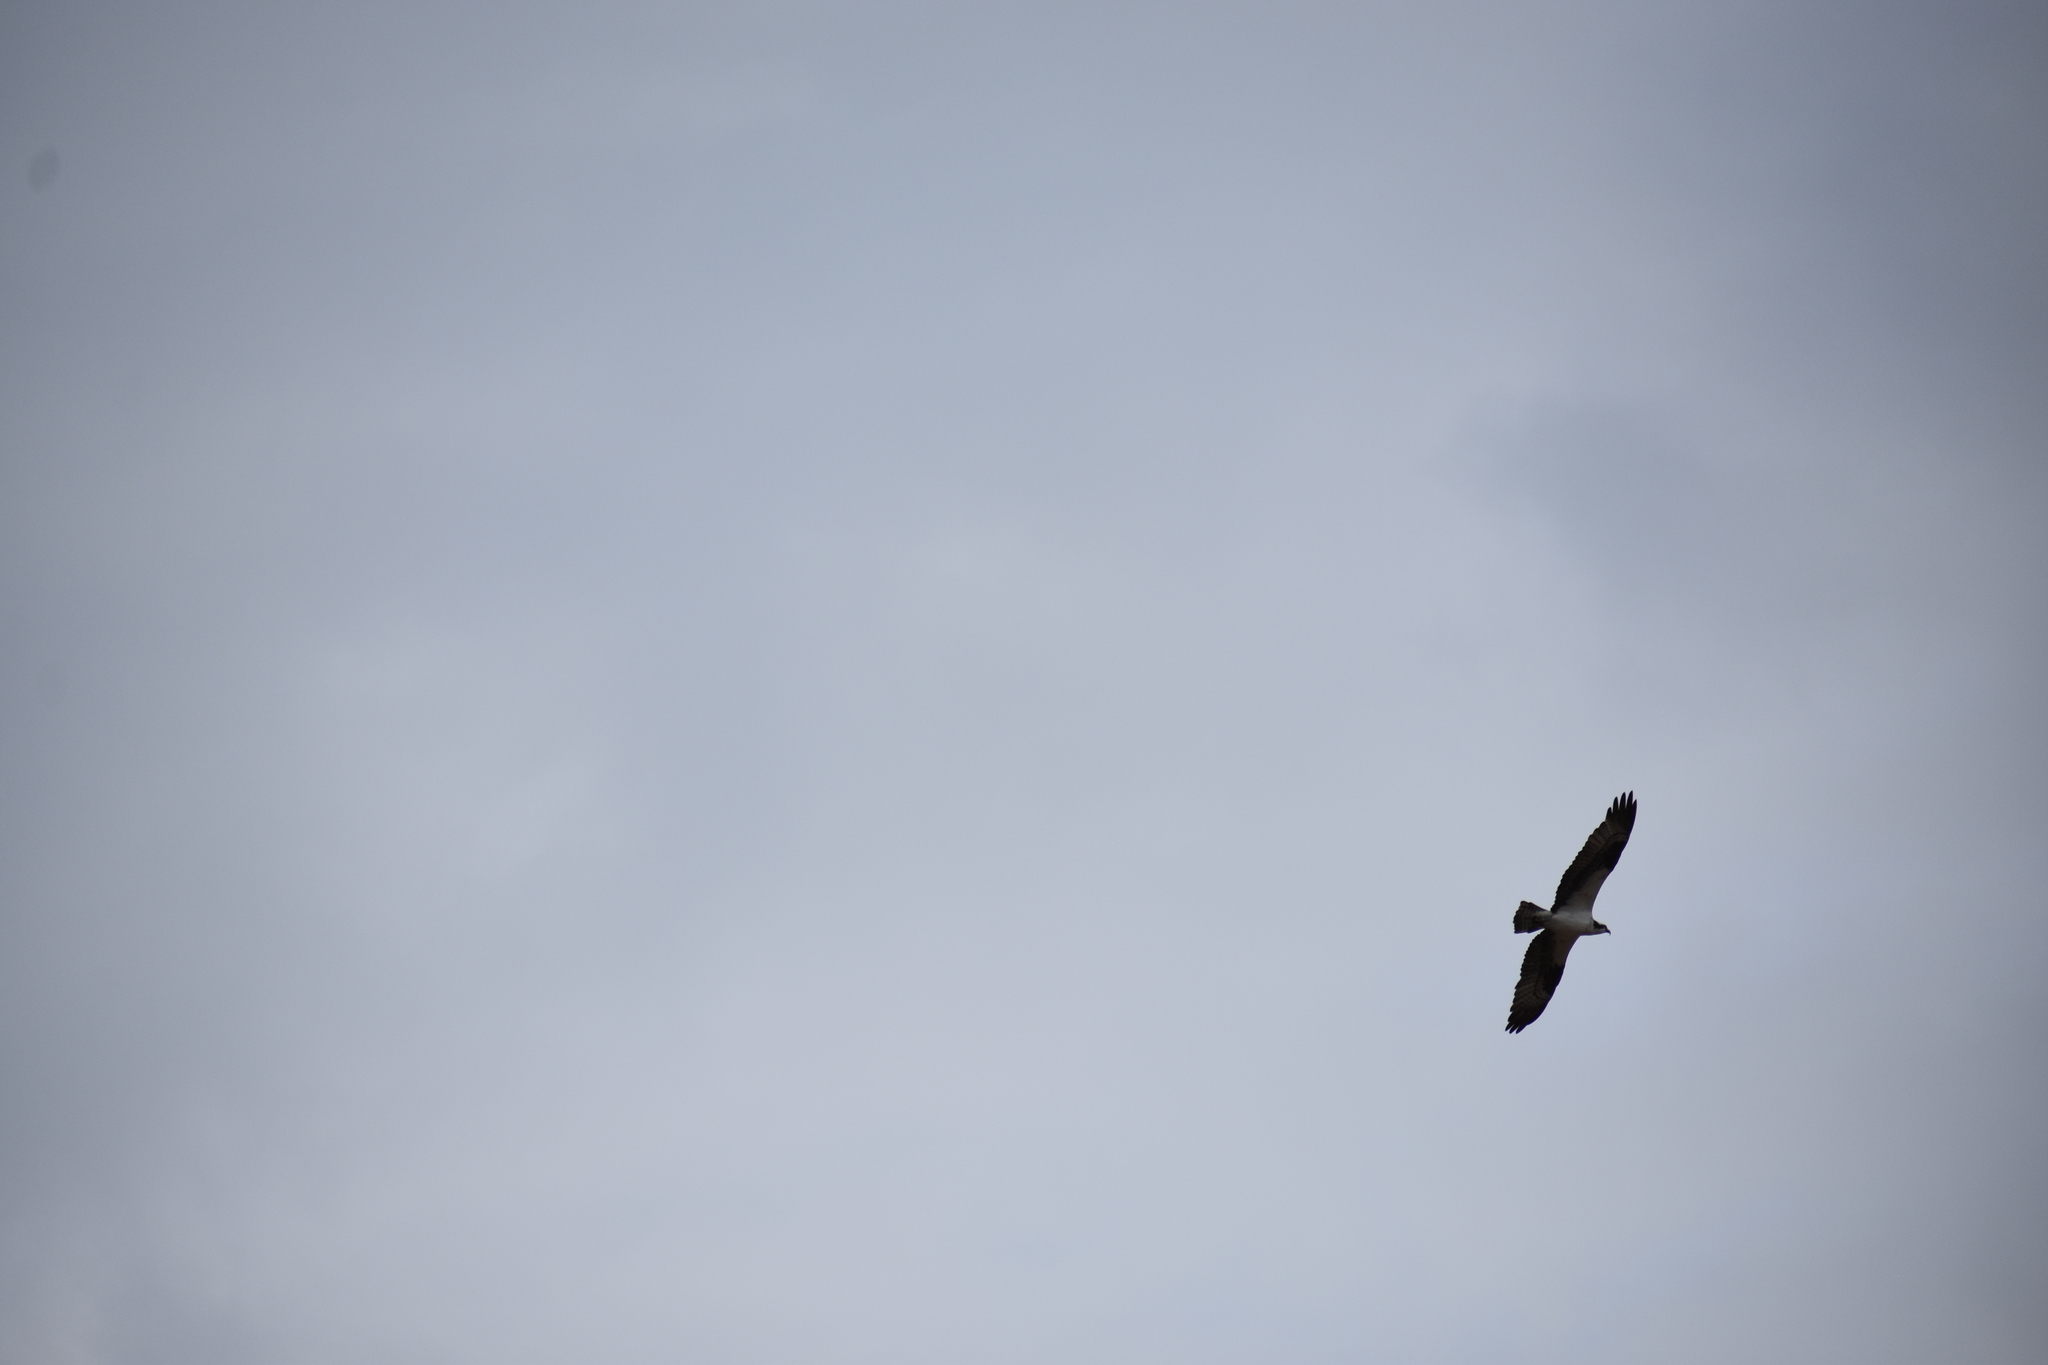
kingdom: Animalia
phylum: Chordata
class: Aves
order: Accipitriformes
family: Pandionidae
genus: Pandion
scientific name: Pandion haliaetus
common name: Osprey
